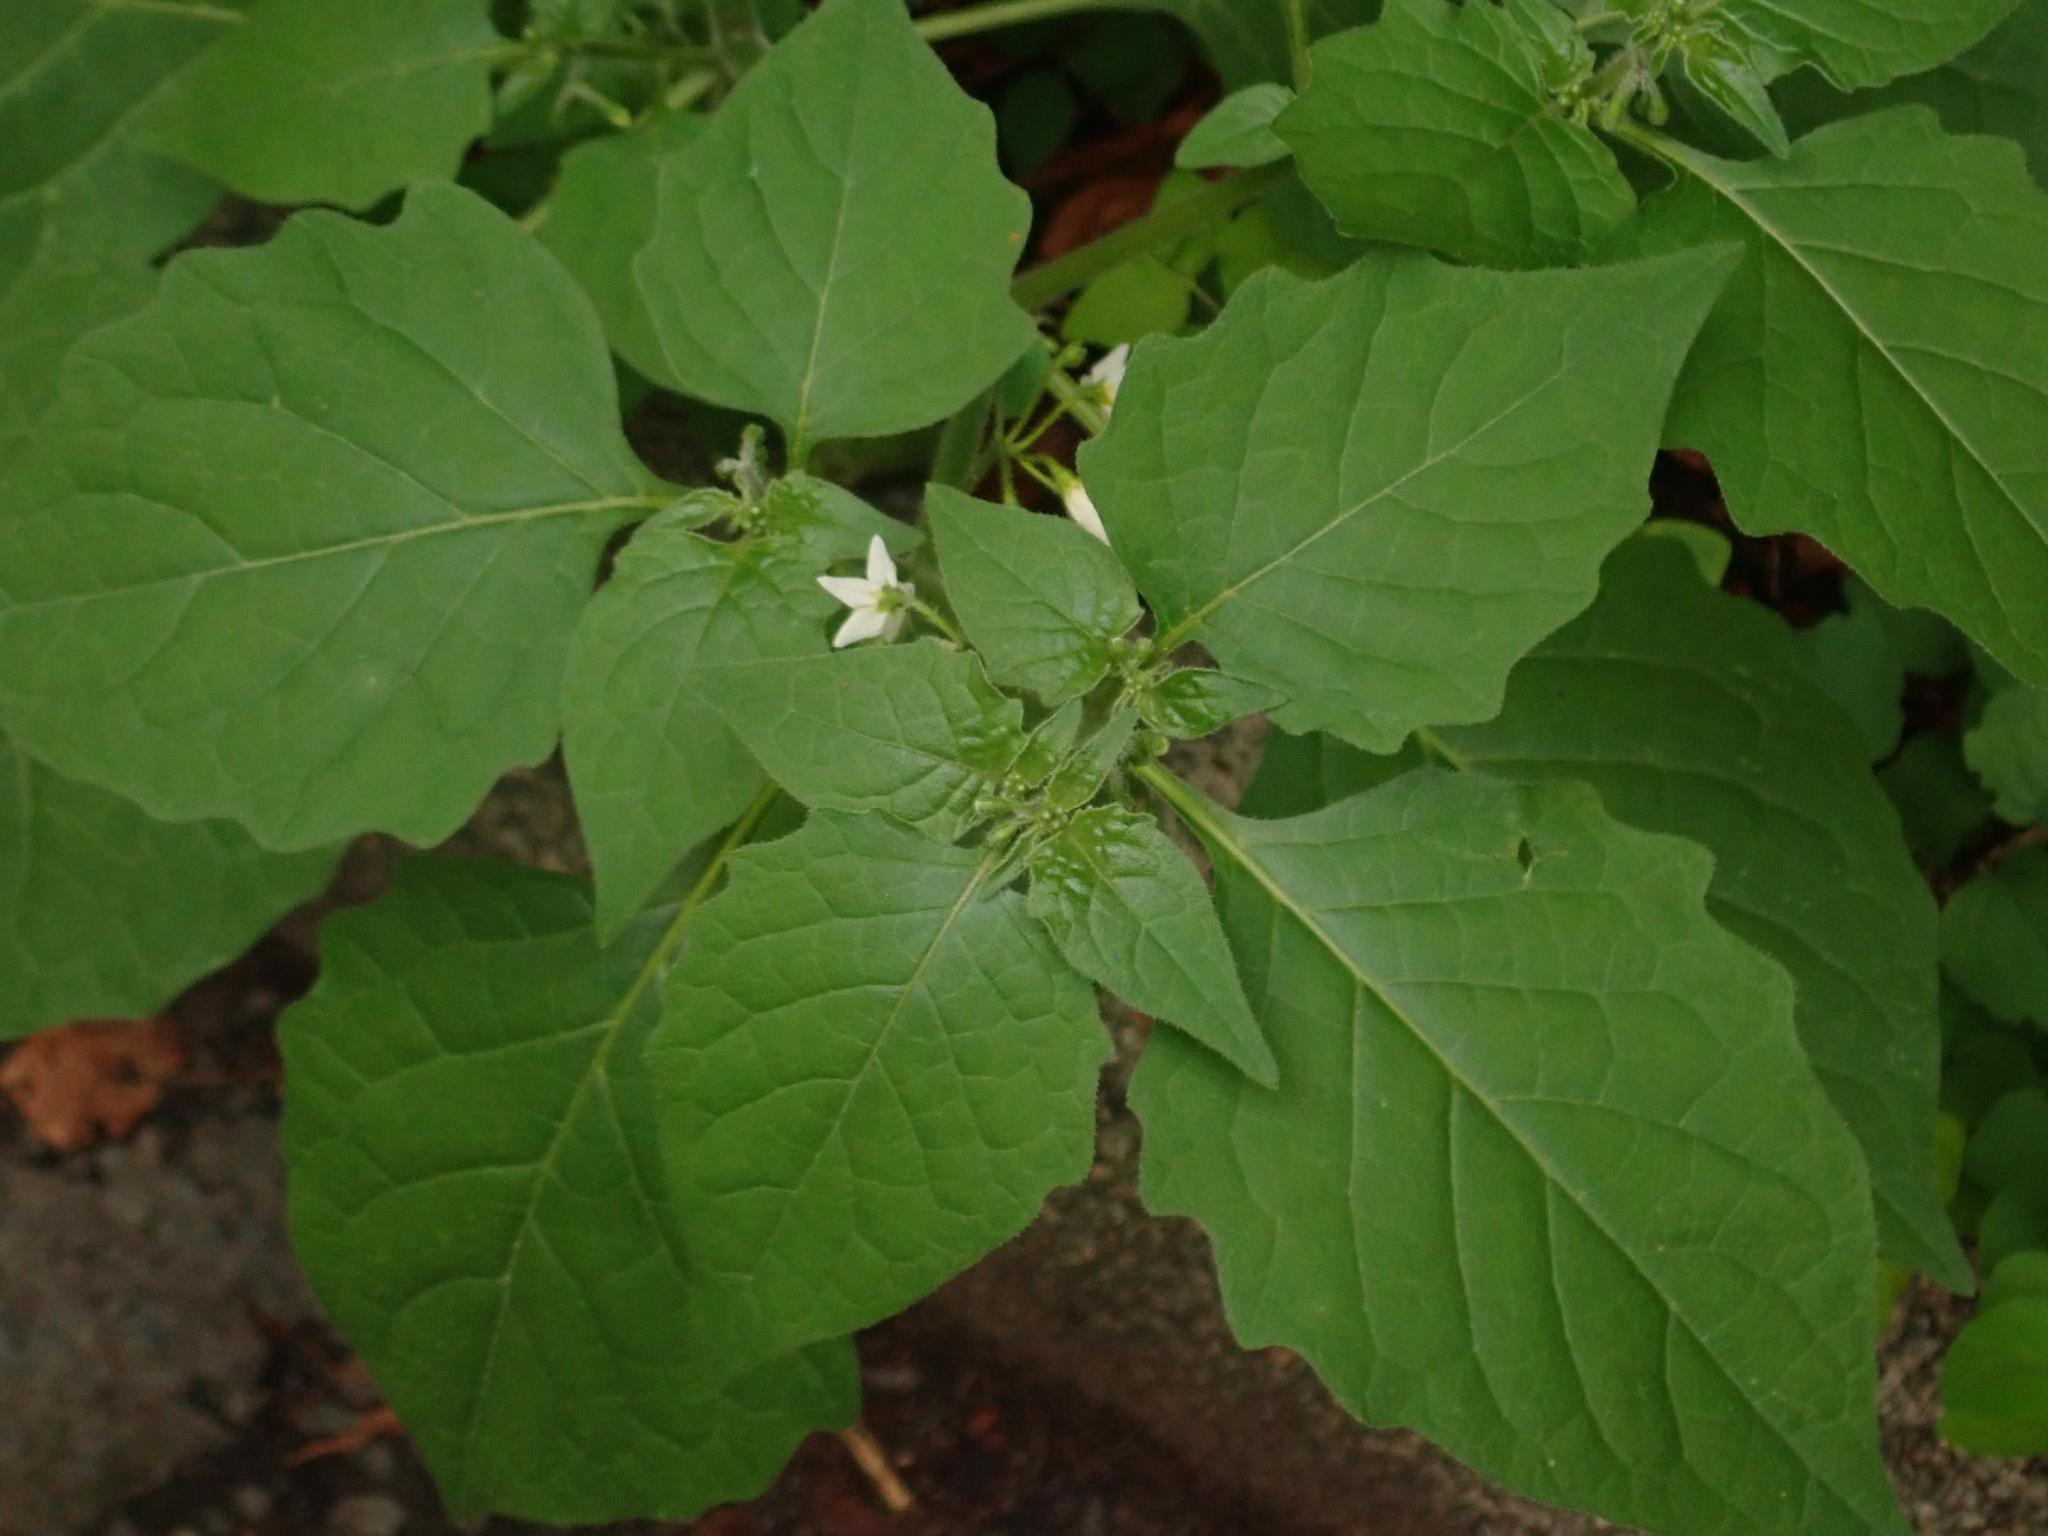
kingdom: Plantae
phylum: Tracheophyta
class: Magnoliopsida
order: Solanales
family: Solanaceae
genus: Solanum
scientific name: Solanum nigrum
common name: Black nightshade
